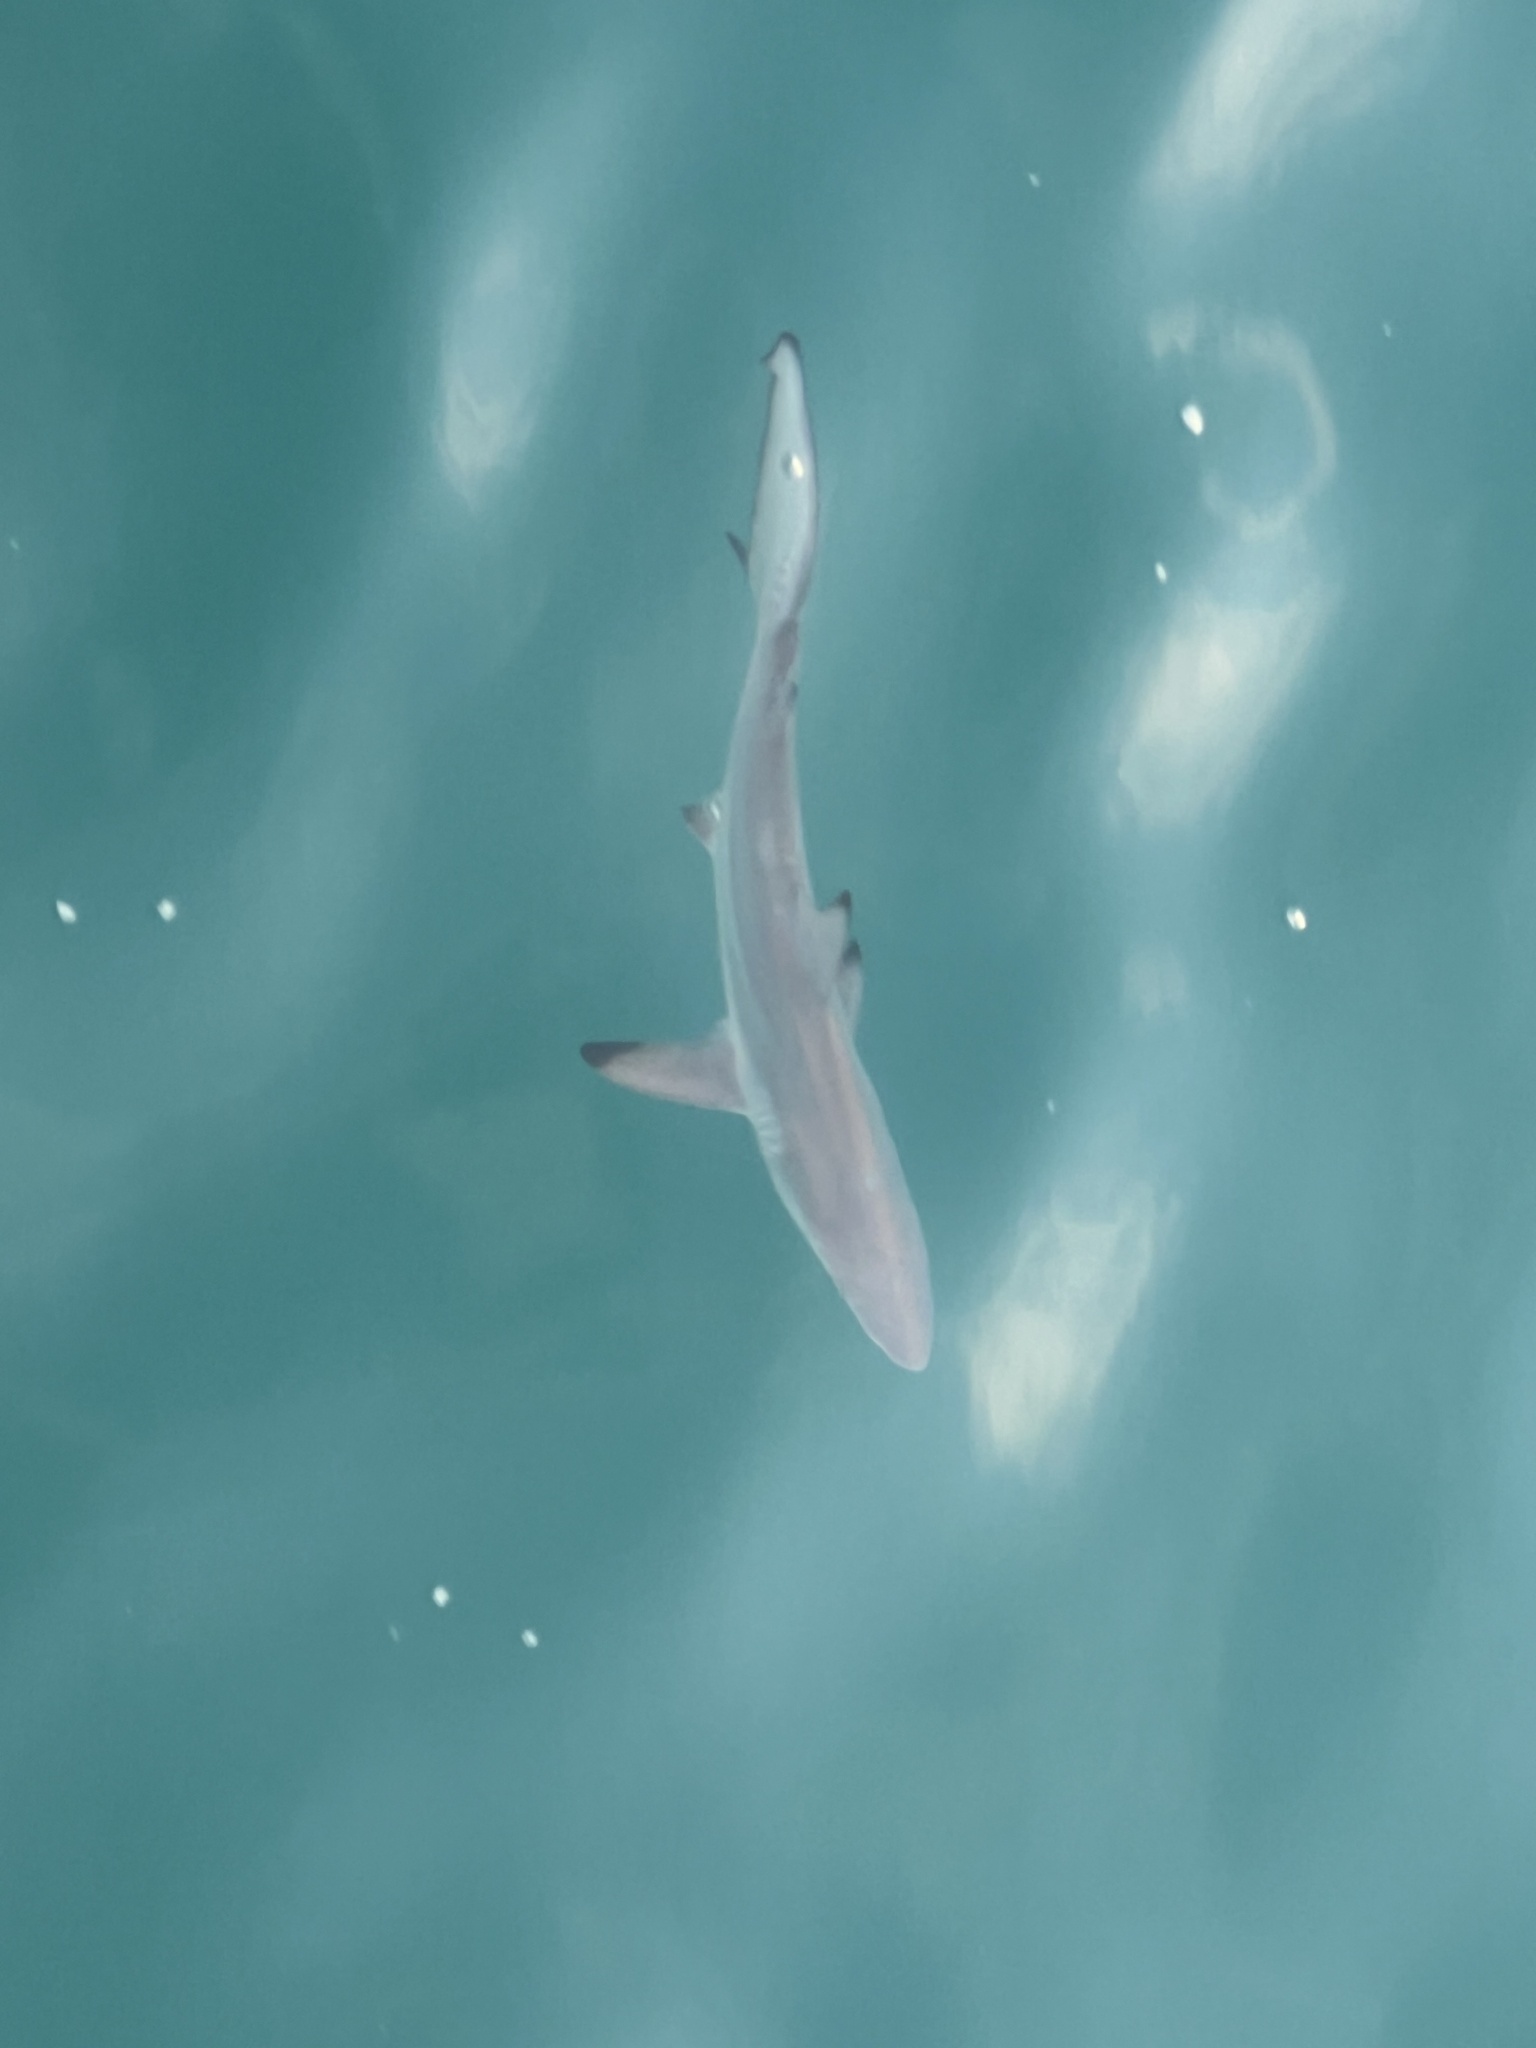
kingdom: Animalia
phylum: Chordata
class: Elasmobranchii
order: Carcharhiniformes
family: Carcharhinidae
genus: Carcharhinus
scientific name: Carcharhinus limbatus
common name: Blacktip shark
